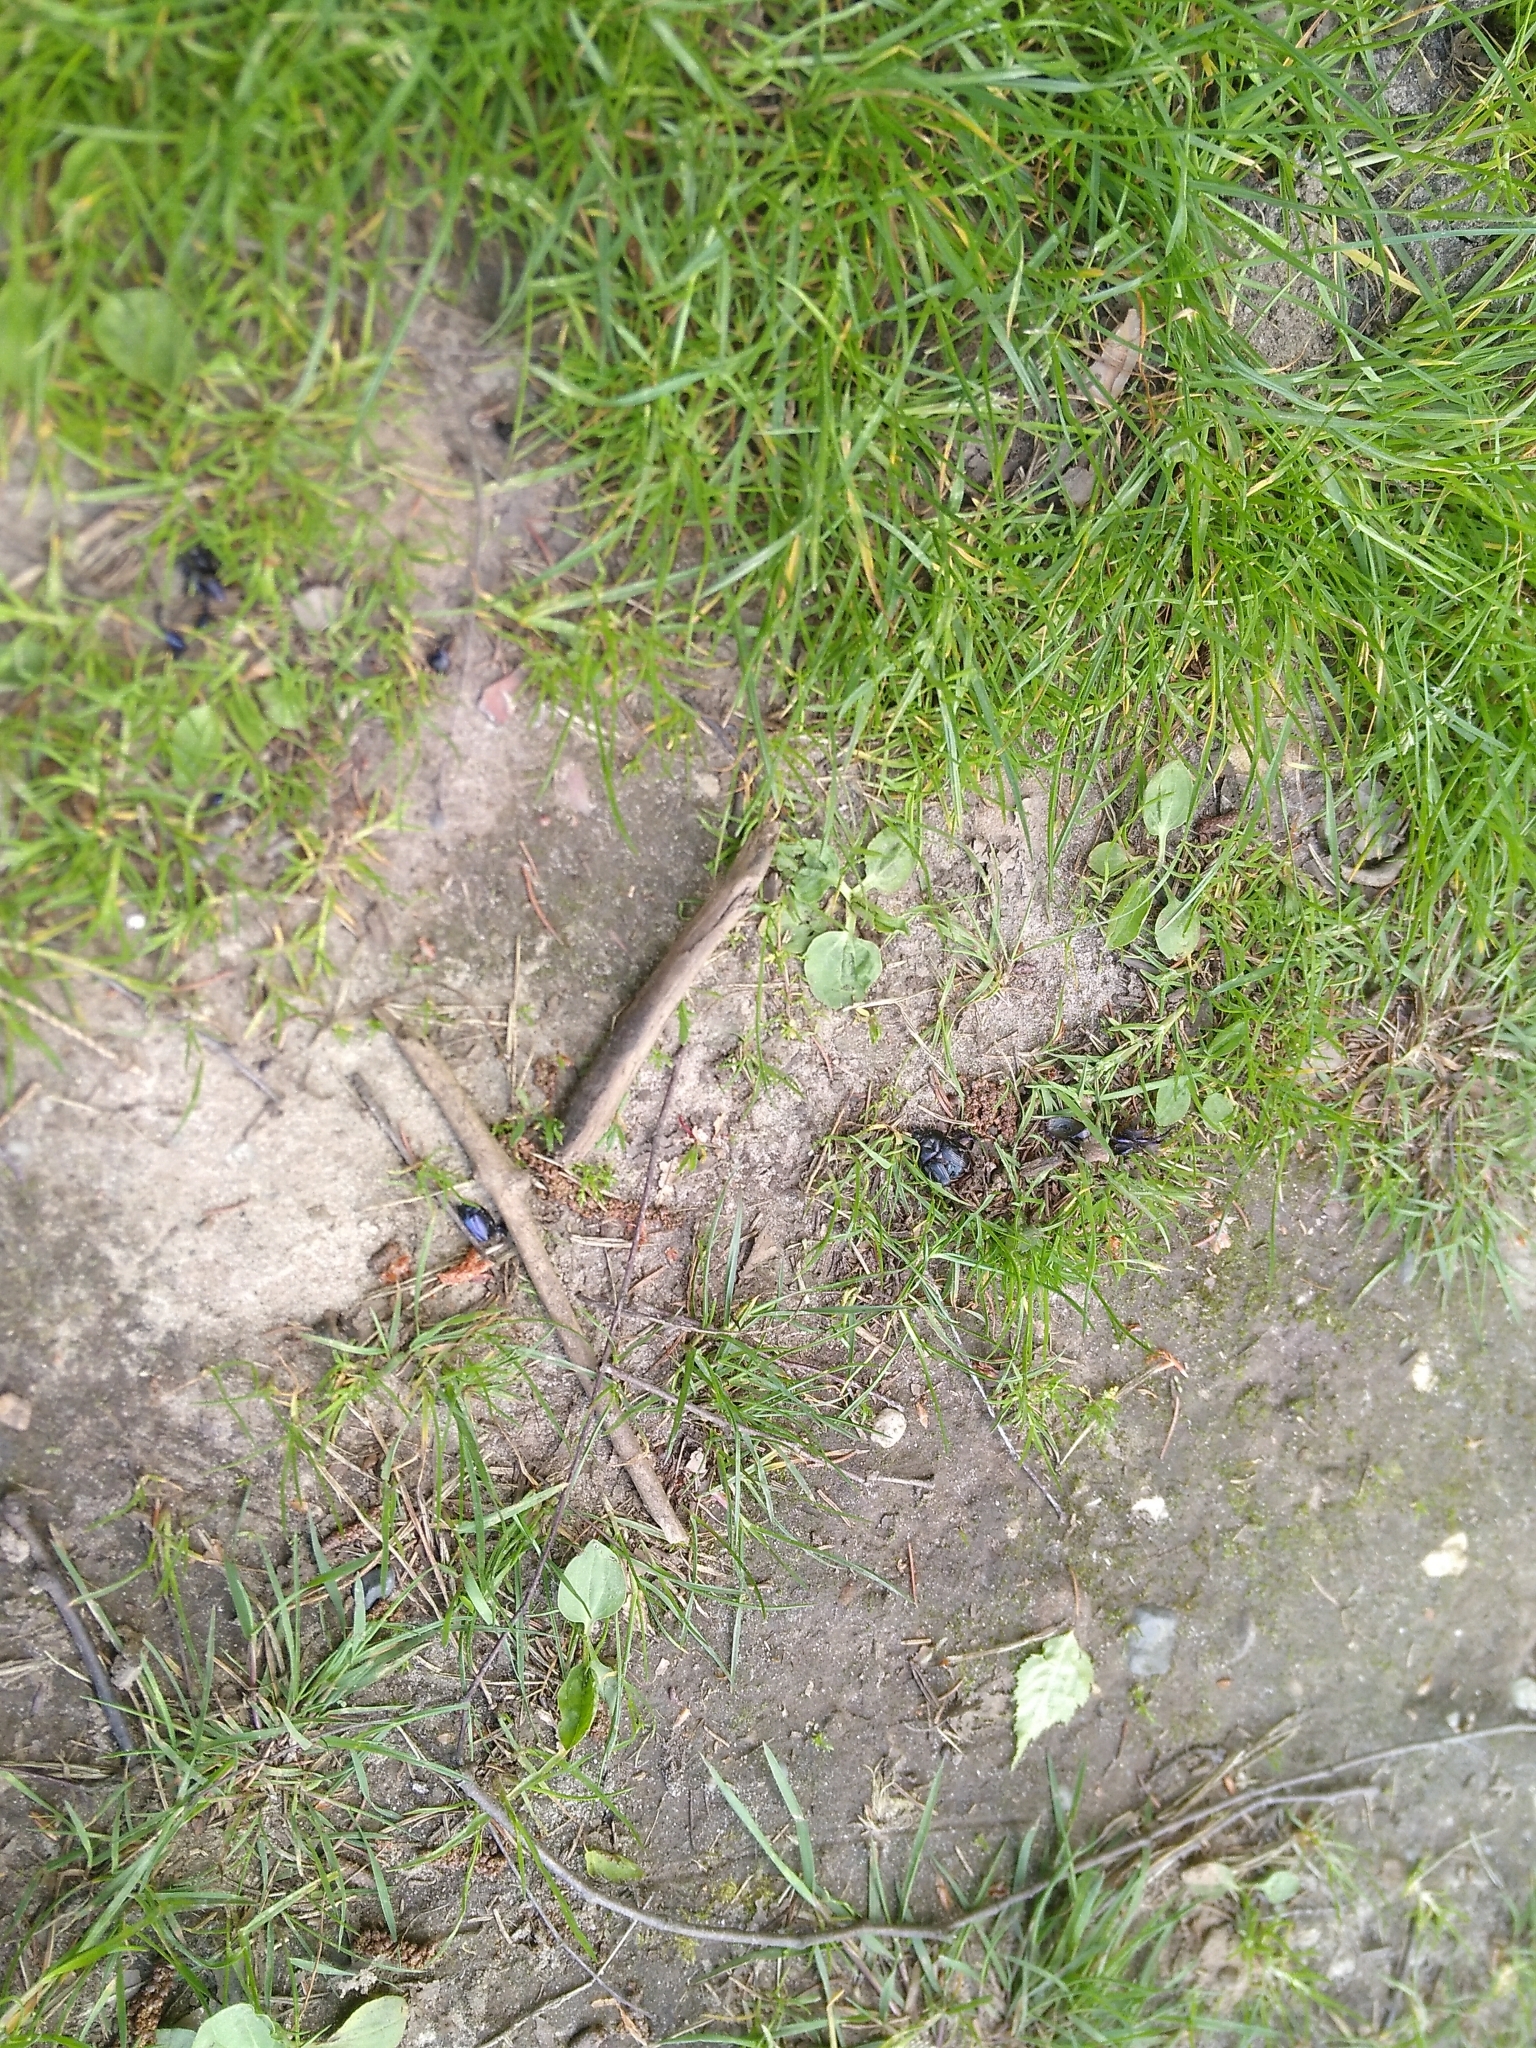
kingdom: Animalia
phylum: Arthropoda
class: Insecta
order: Coleoptera
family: Geotrupidae
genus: Anoplotrupes
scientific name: Anoplotrupes stercorosus
